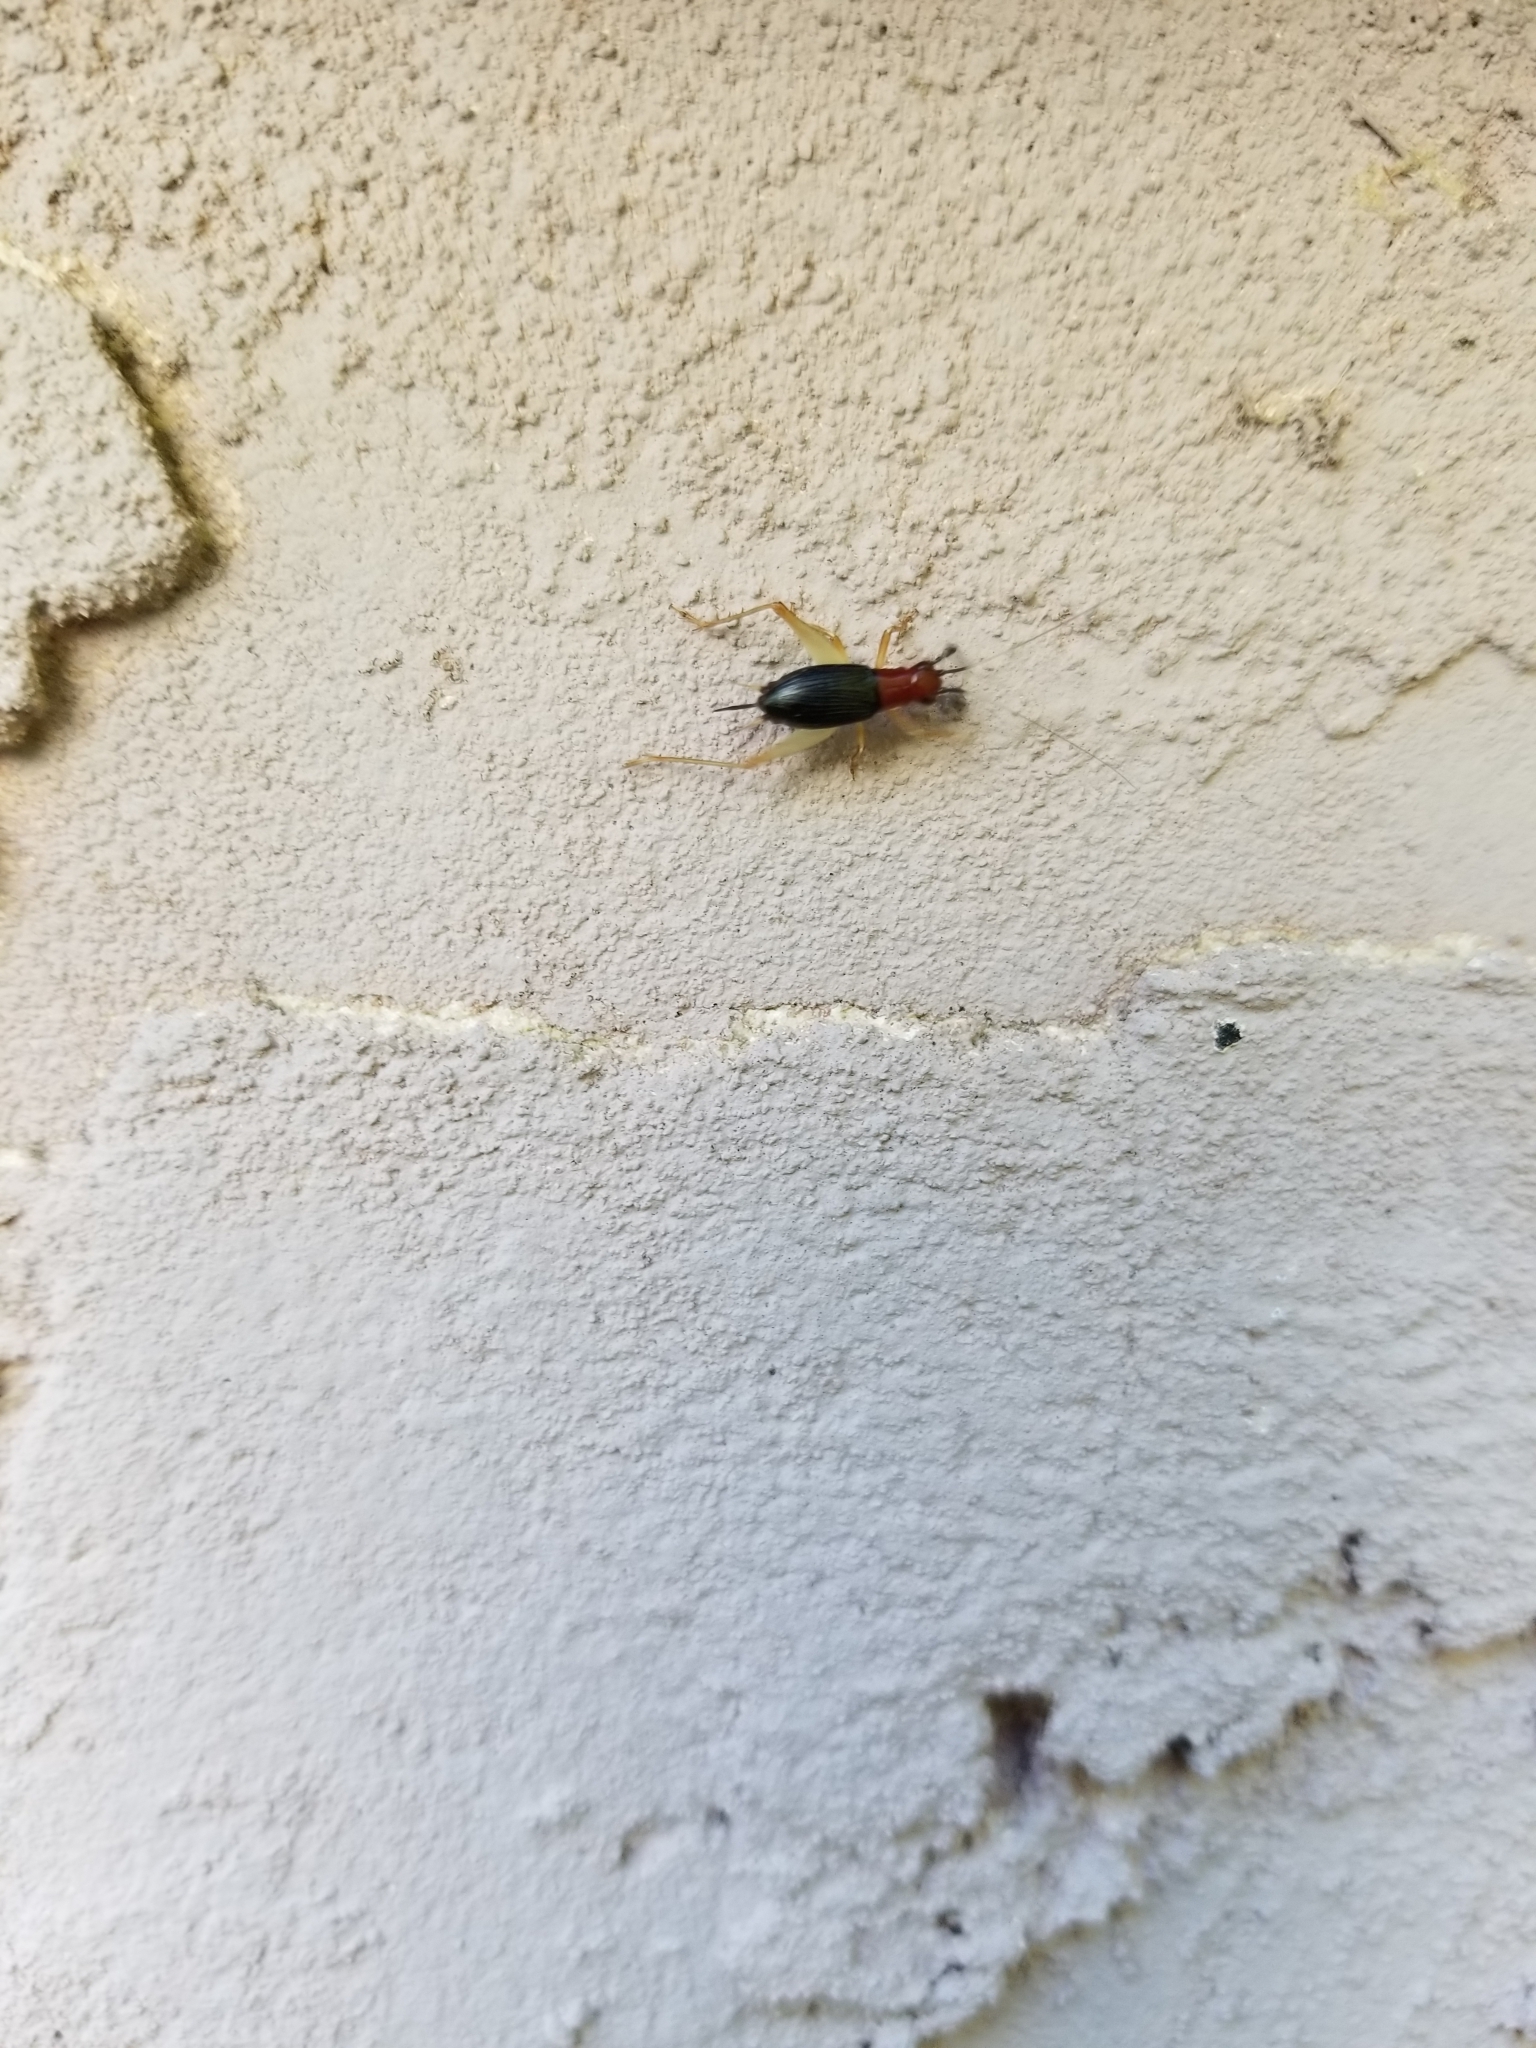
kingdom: Animalia
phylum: Arthropoda
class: Insecta
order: Orthoptera
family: Trigonidiidae
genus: Phyllopalpus
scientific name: Phyllopalpus pulchellus
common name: Handsome trig
